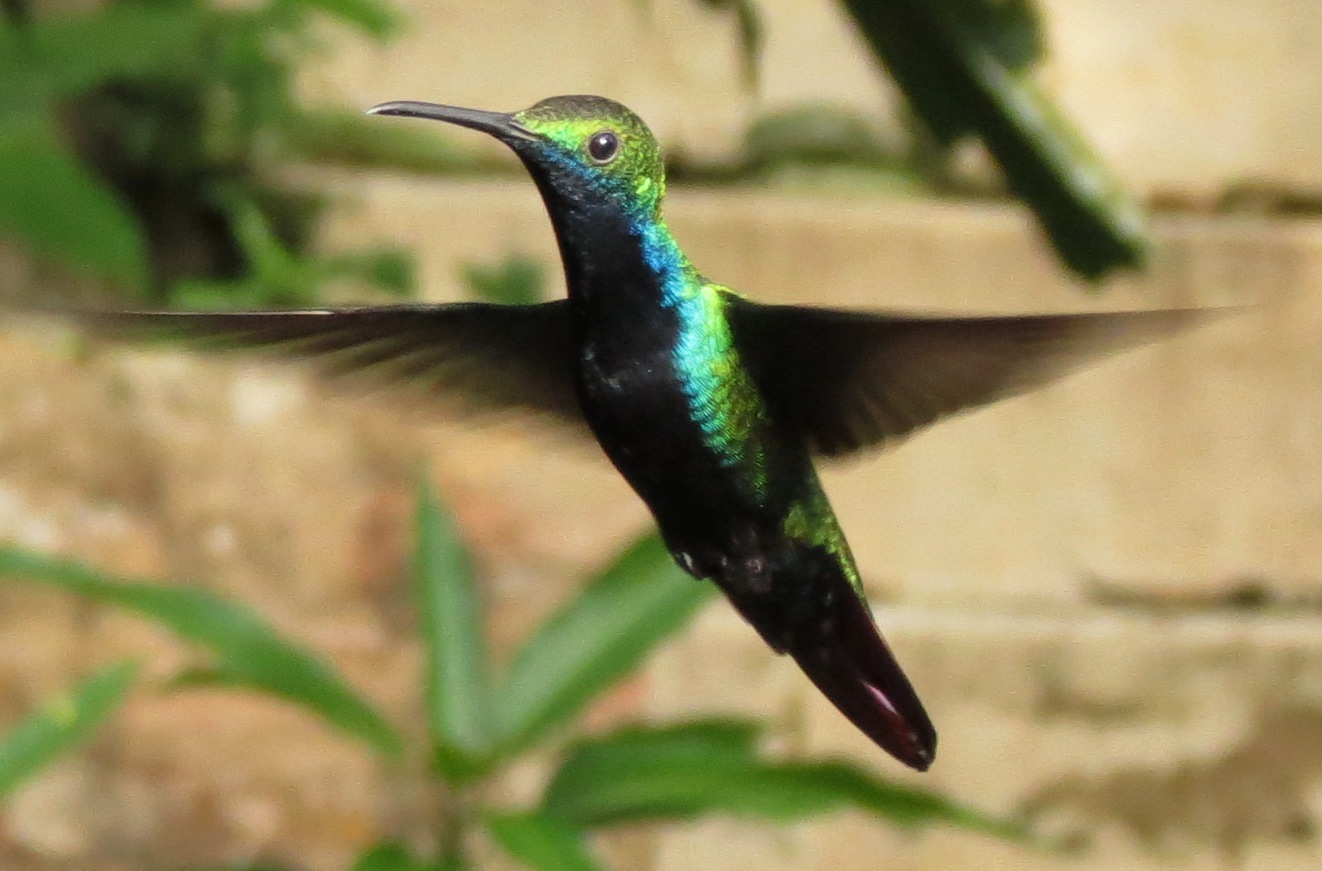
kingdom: Animalia
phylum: Chordata
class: Aves
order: Apodiformes
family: Trochilidae
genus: Anthracothorax
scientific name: Anthracothorax nigricollis
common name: Black-throated mango
